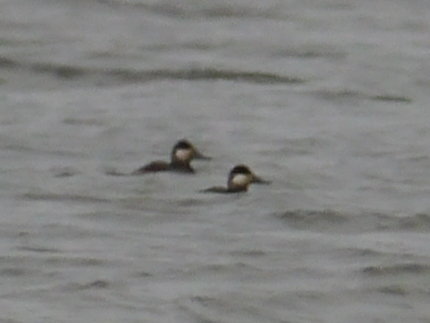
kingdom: Animalia
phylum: Chordata
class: Aves
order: Anseriformes
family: Anatidae
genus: Oxyura
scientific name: Oxyura jamaicensis
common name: Ruddy duck
